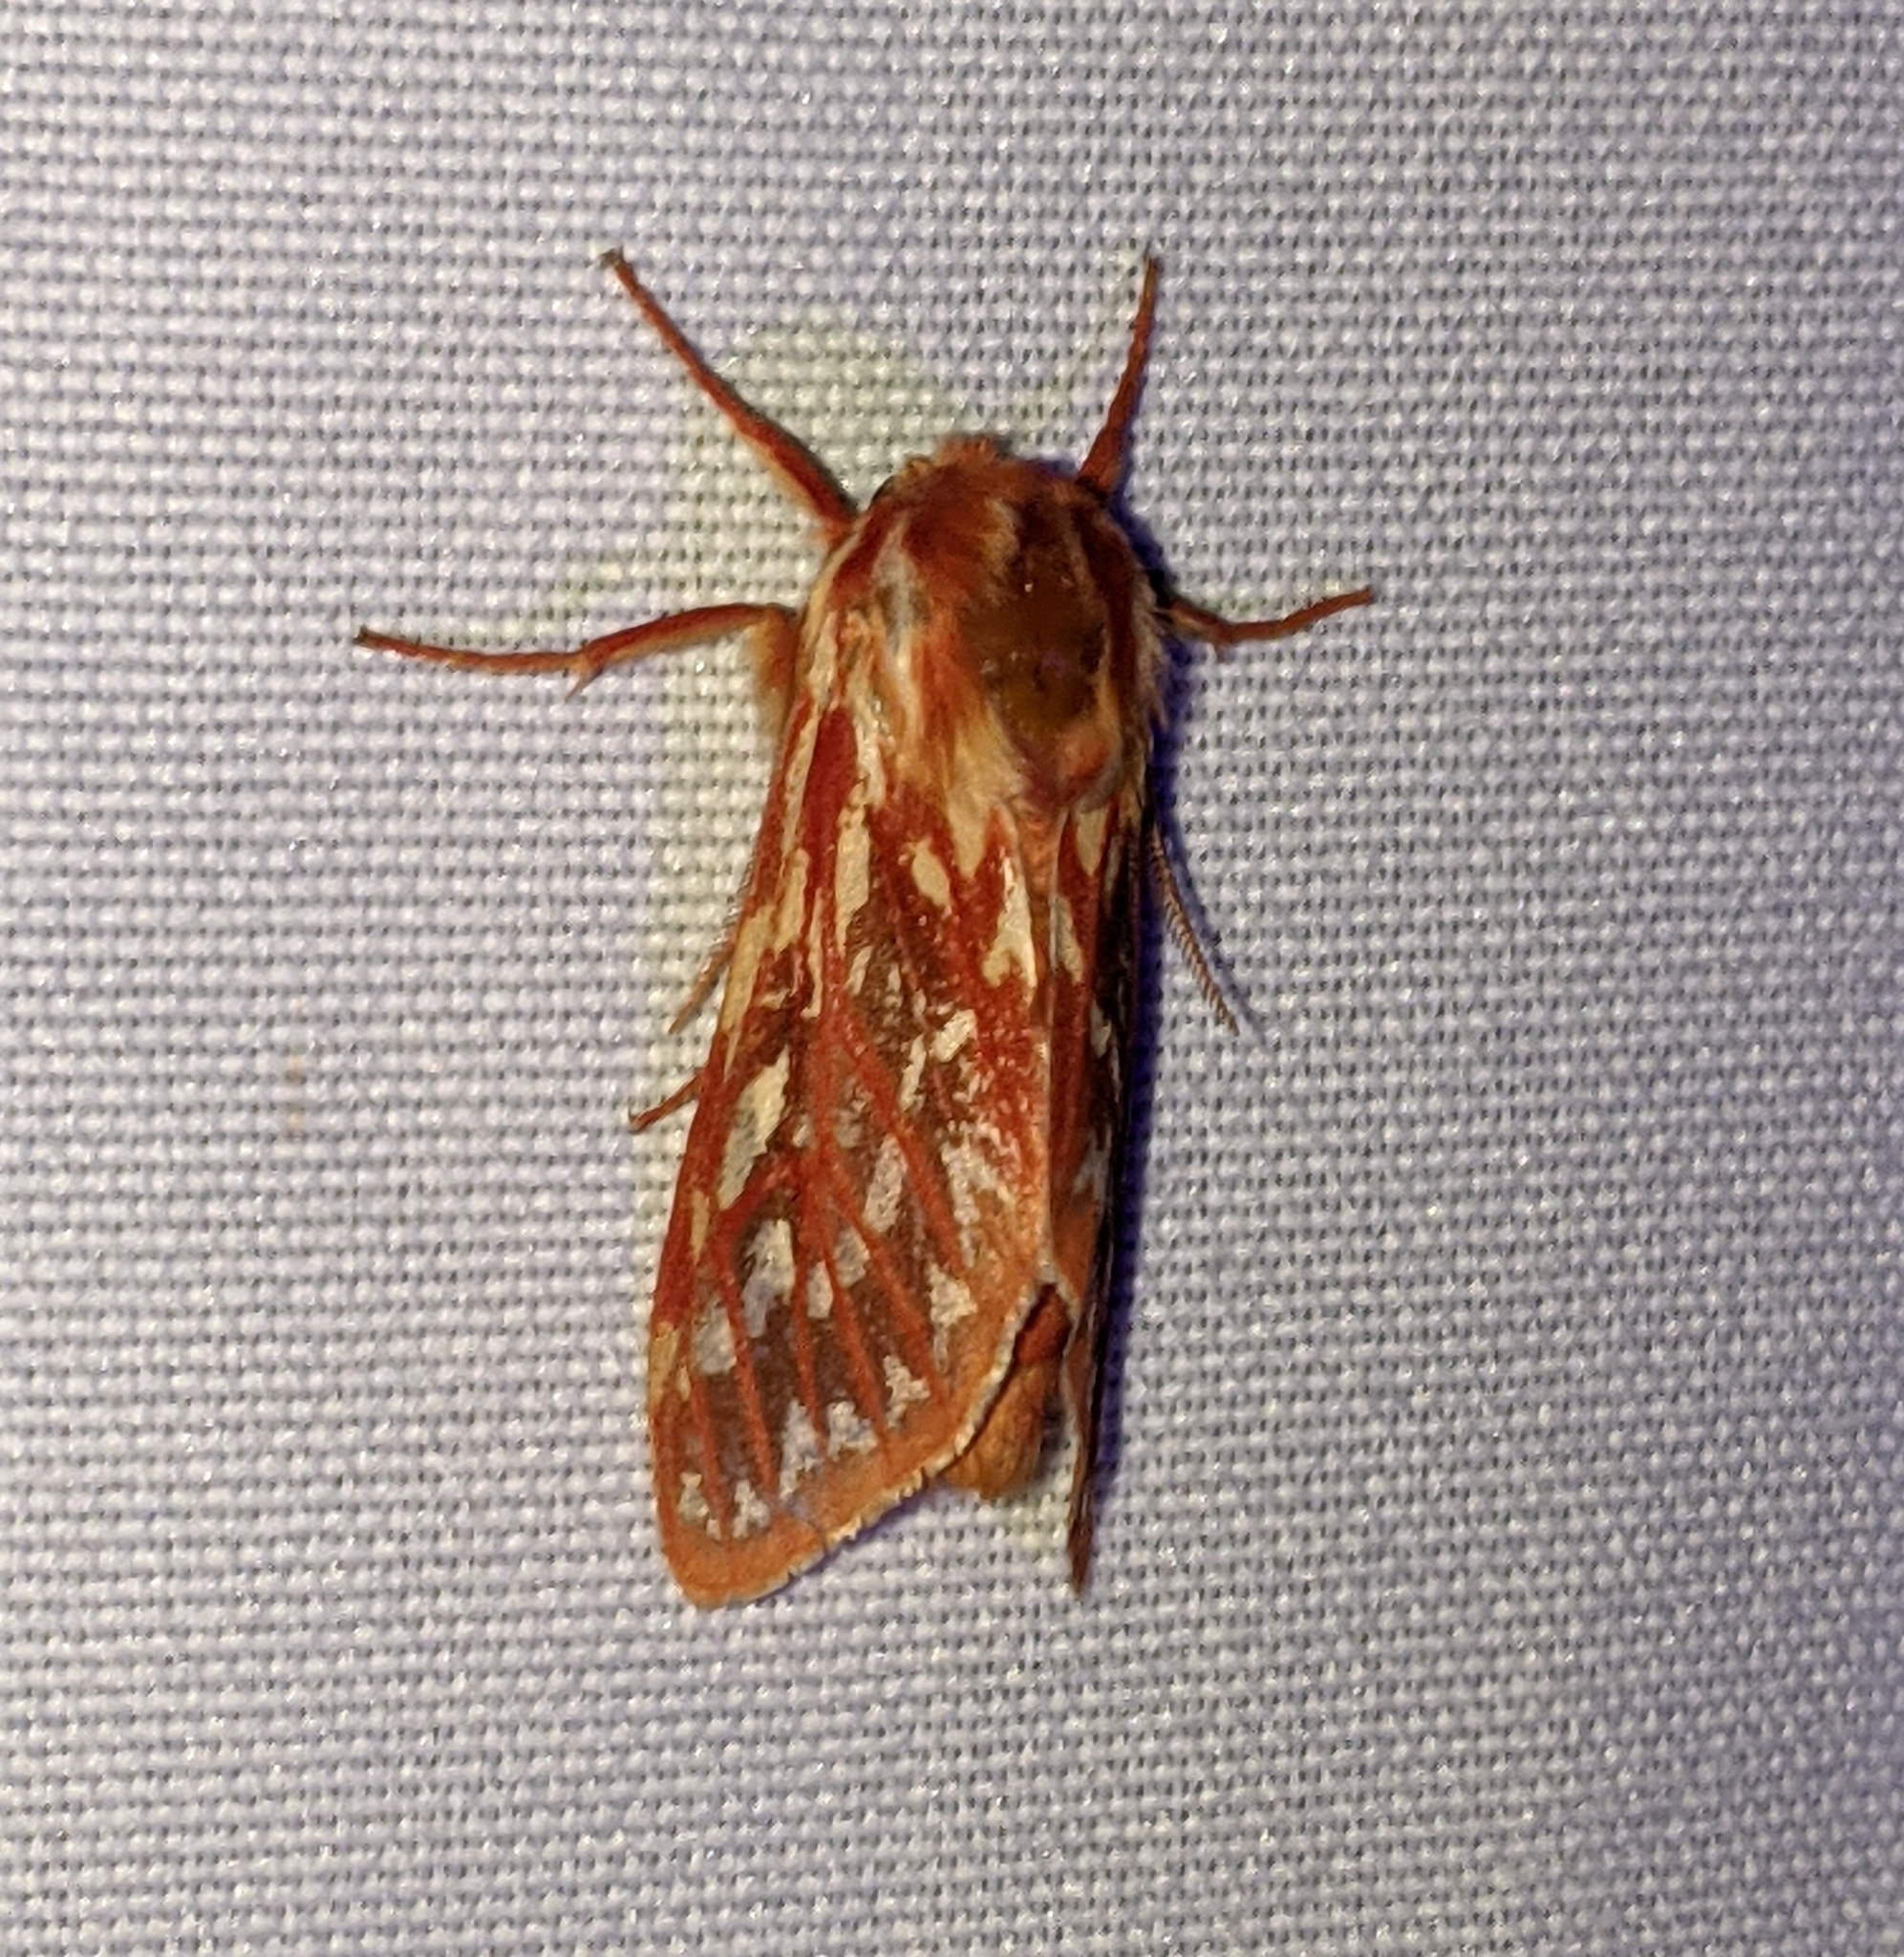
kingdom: Animalia
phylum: Arthropoda
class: Insecta
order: Lepidoptera
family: Erebidae
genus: Lophocampa
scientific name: Lophocampa roseata
